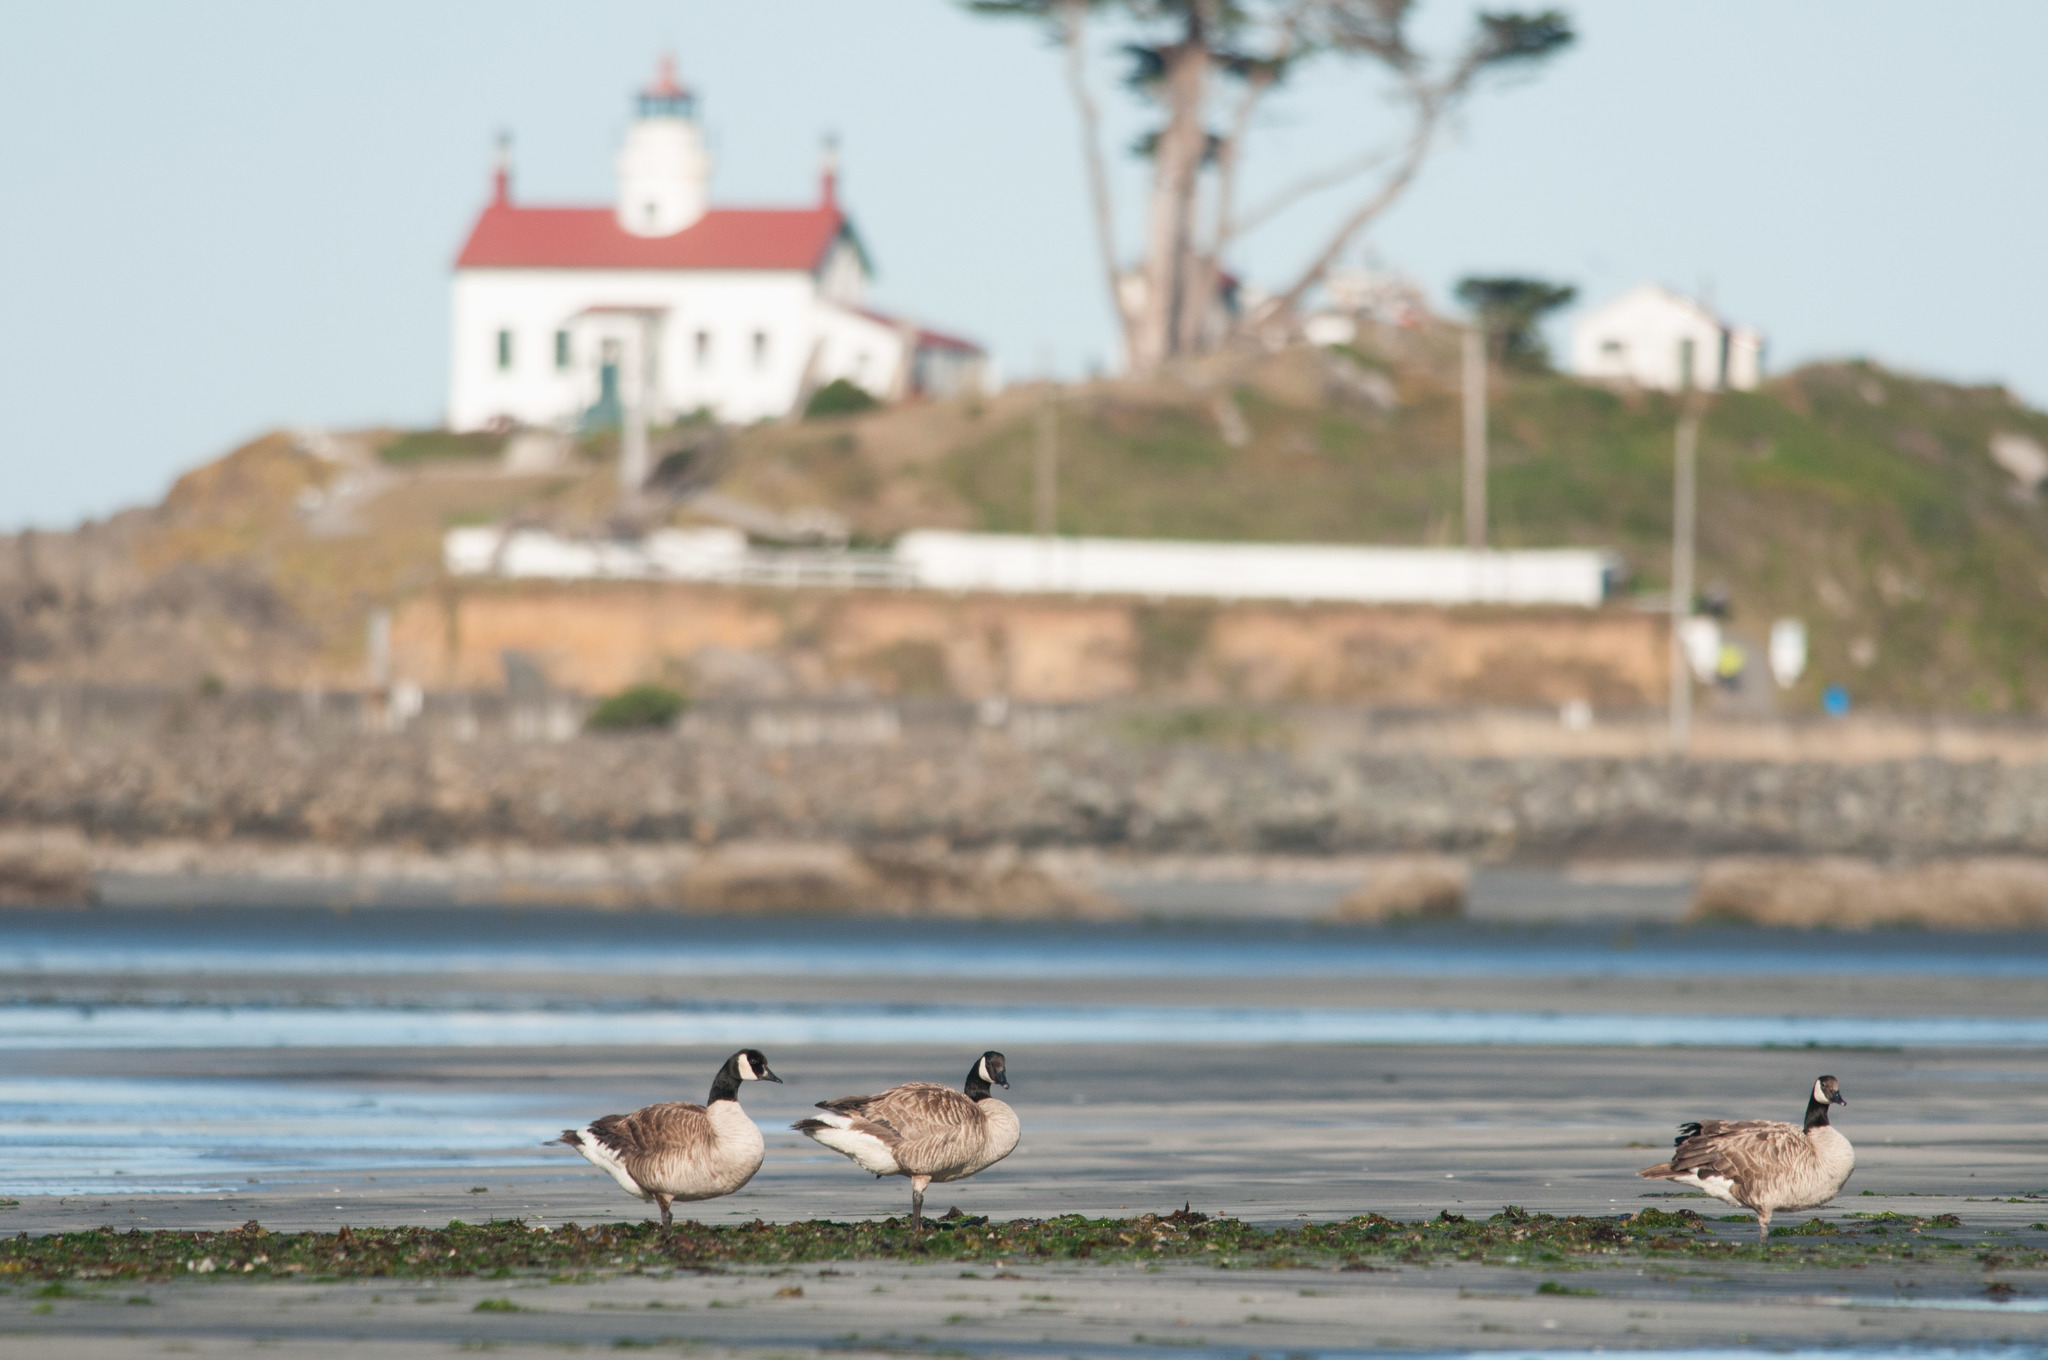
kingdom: Animalia
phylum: Chordata
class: Aves
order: Anseriformes
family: Anatidae
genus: Branta
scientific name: Branta canadensis
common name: Canada goose
